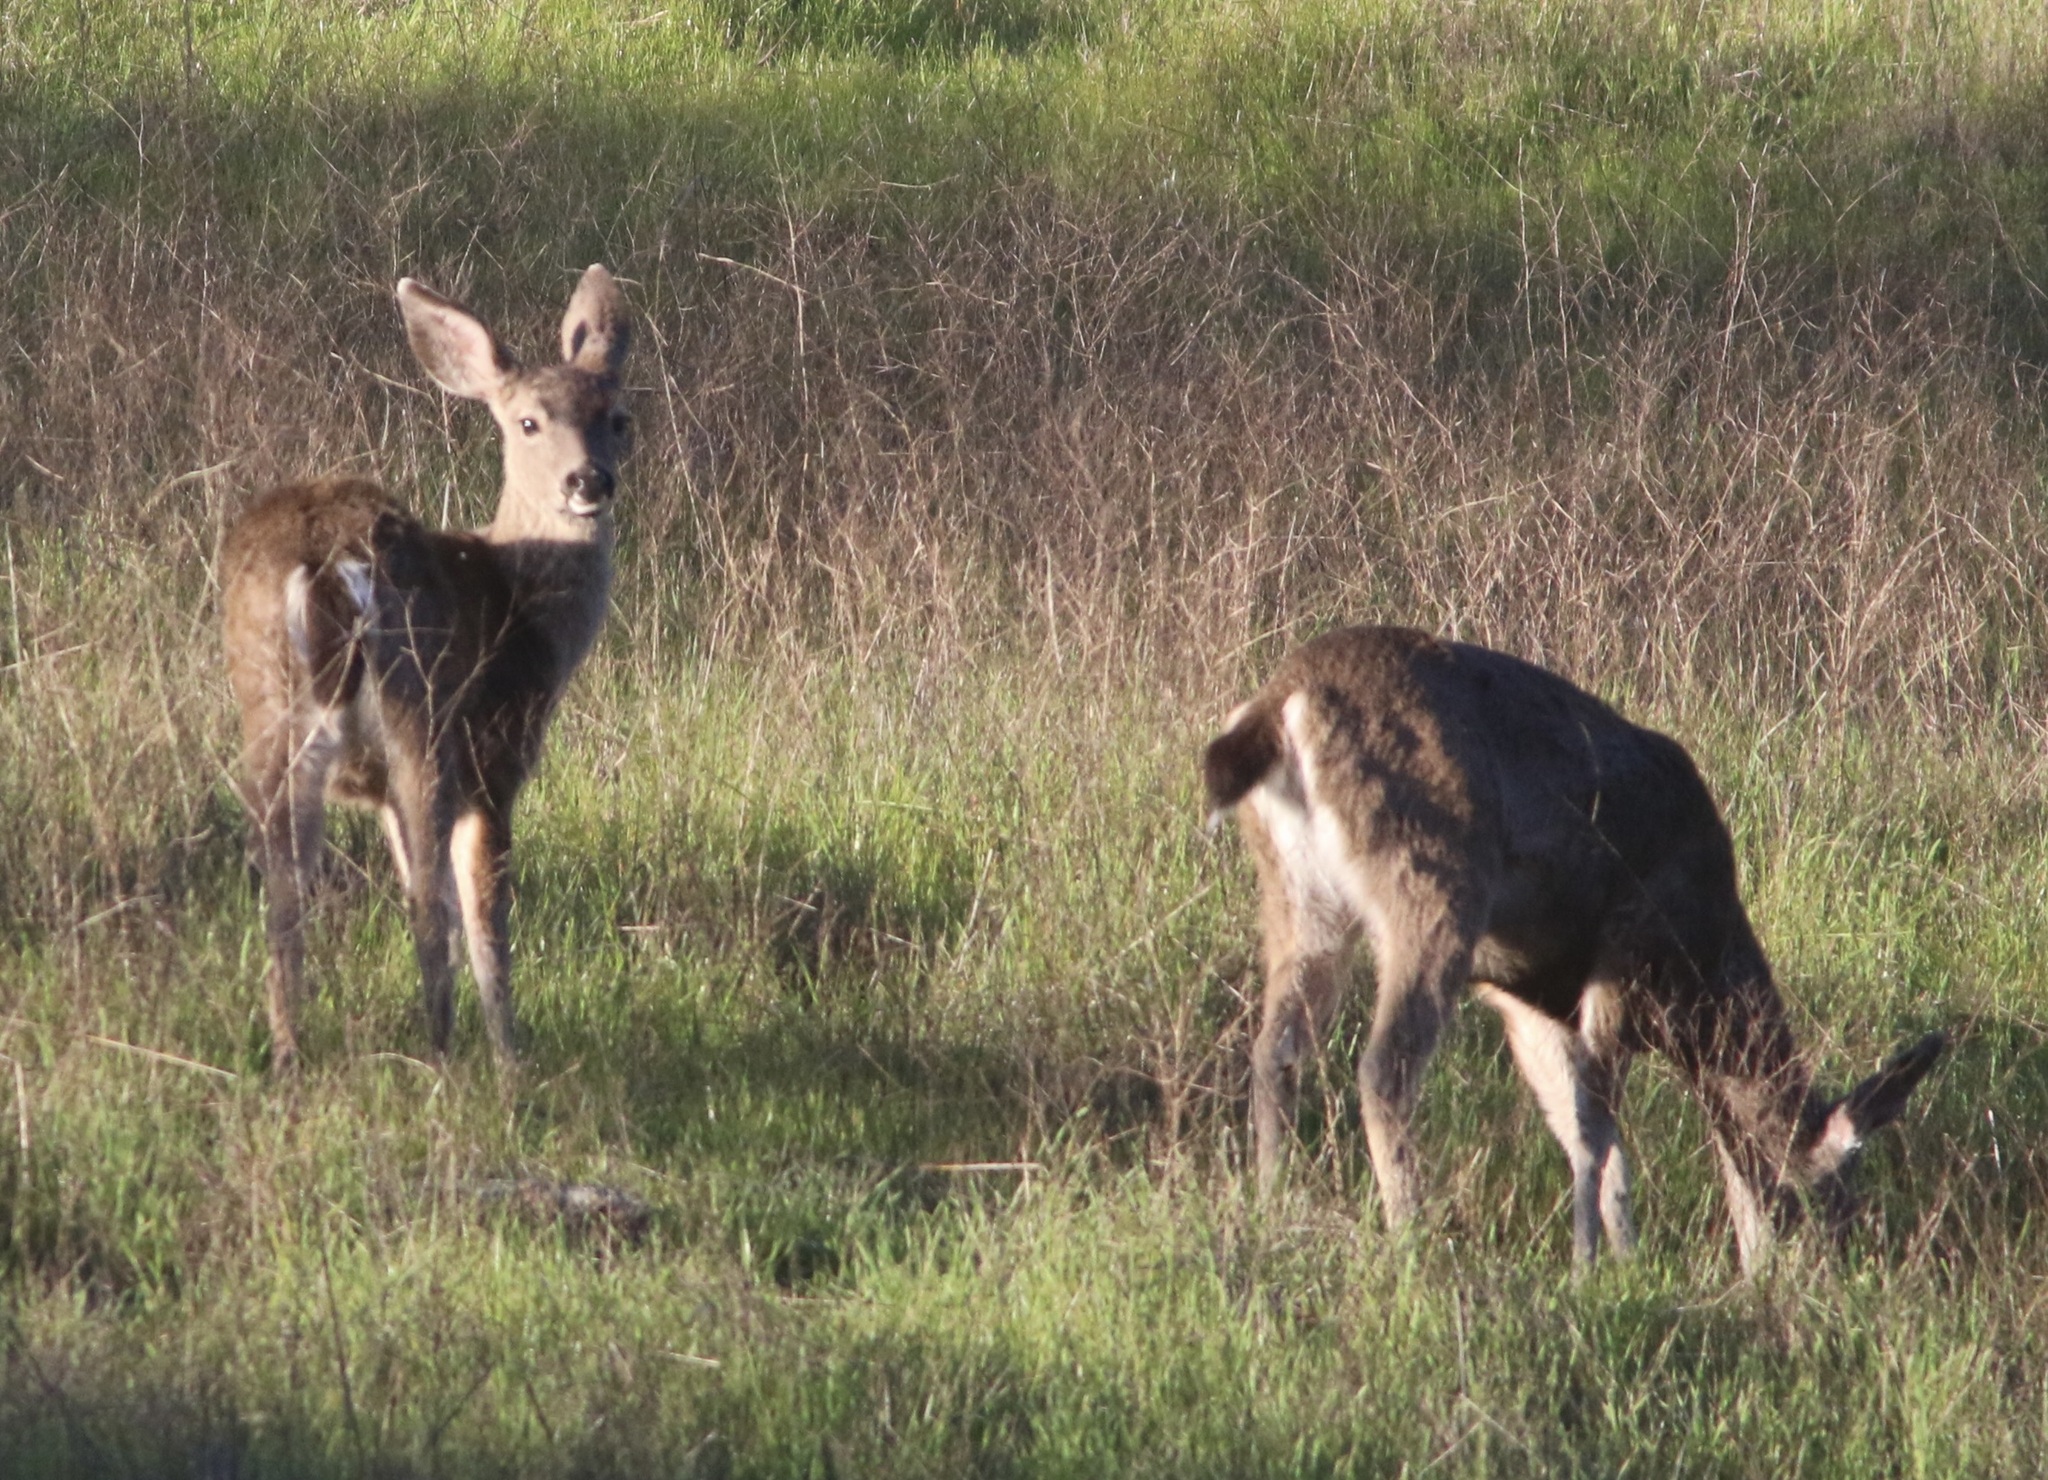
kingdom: Animalia
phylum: Chordata
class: Mammalia
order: Artiodactyla
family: Cervidae
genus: Odocoileus
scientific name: Odocoileus hemionus
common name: Mule deer
